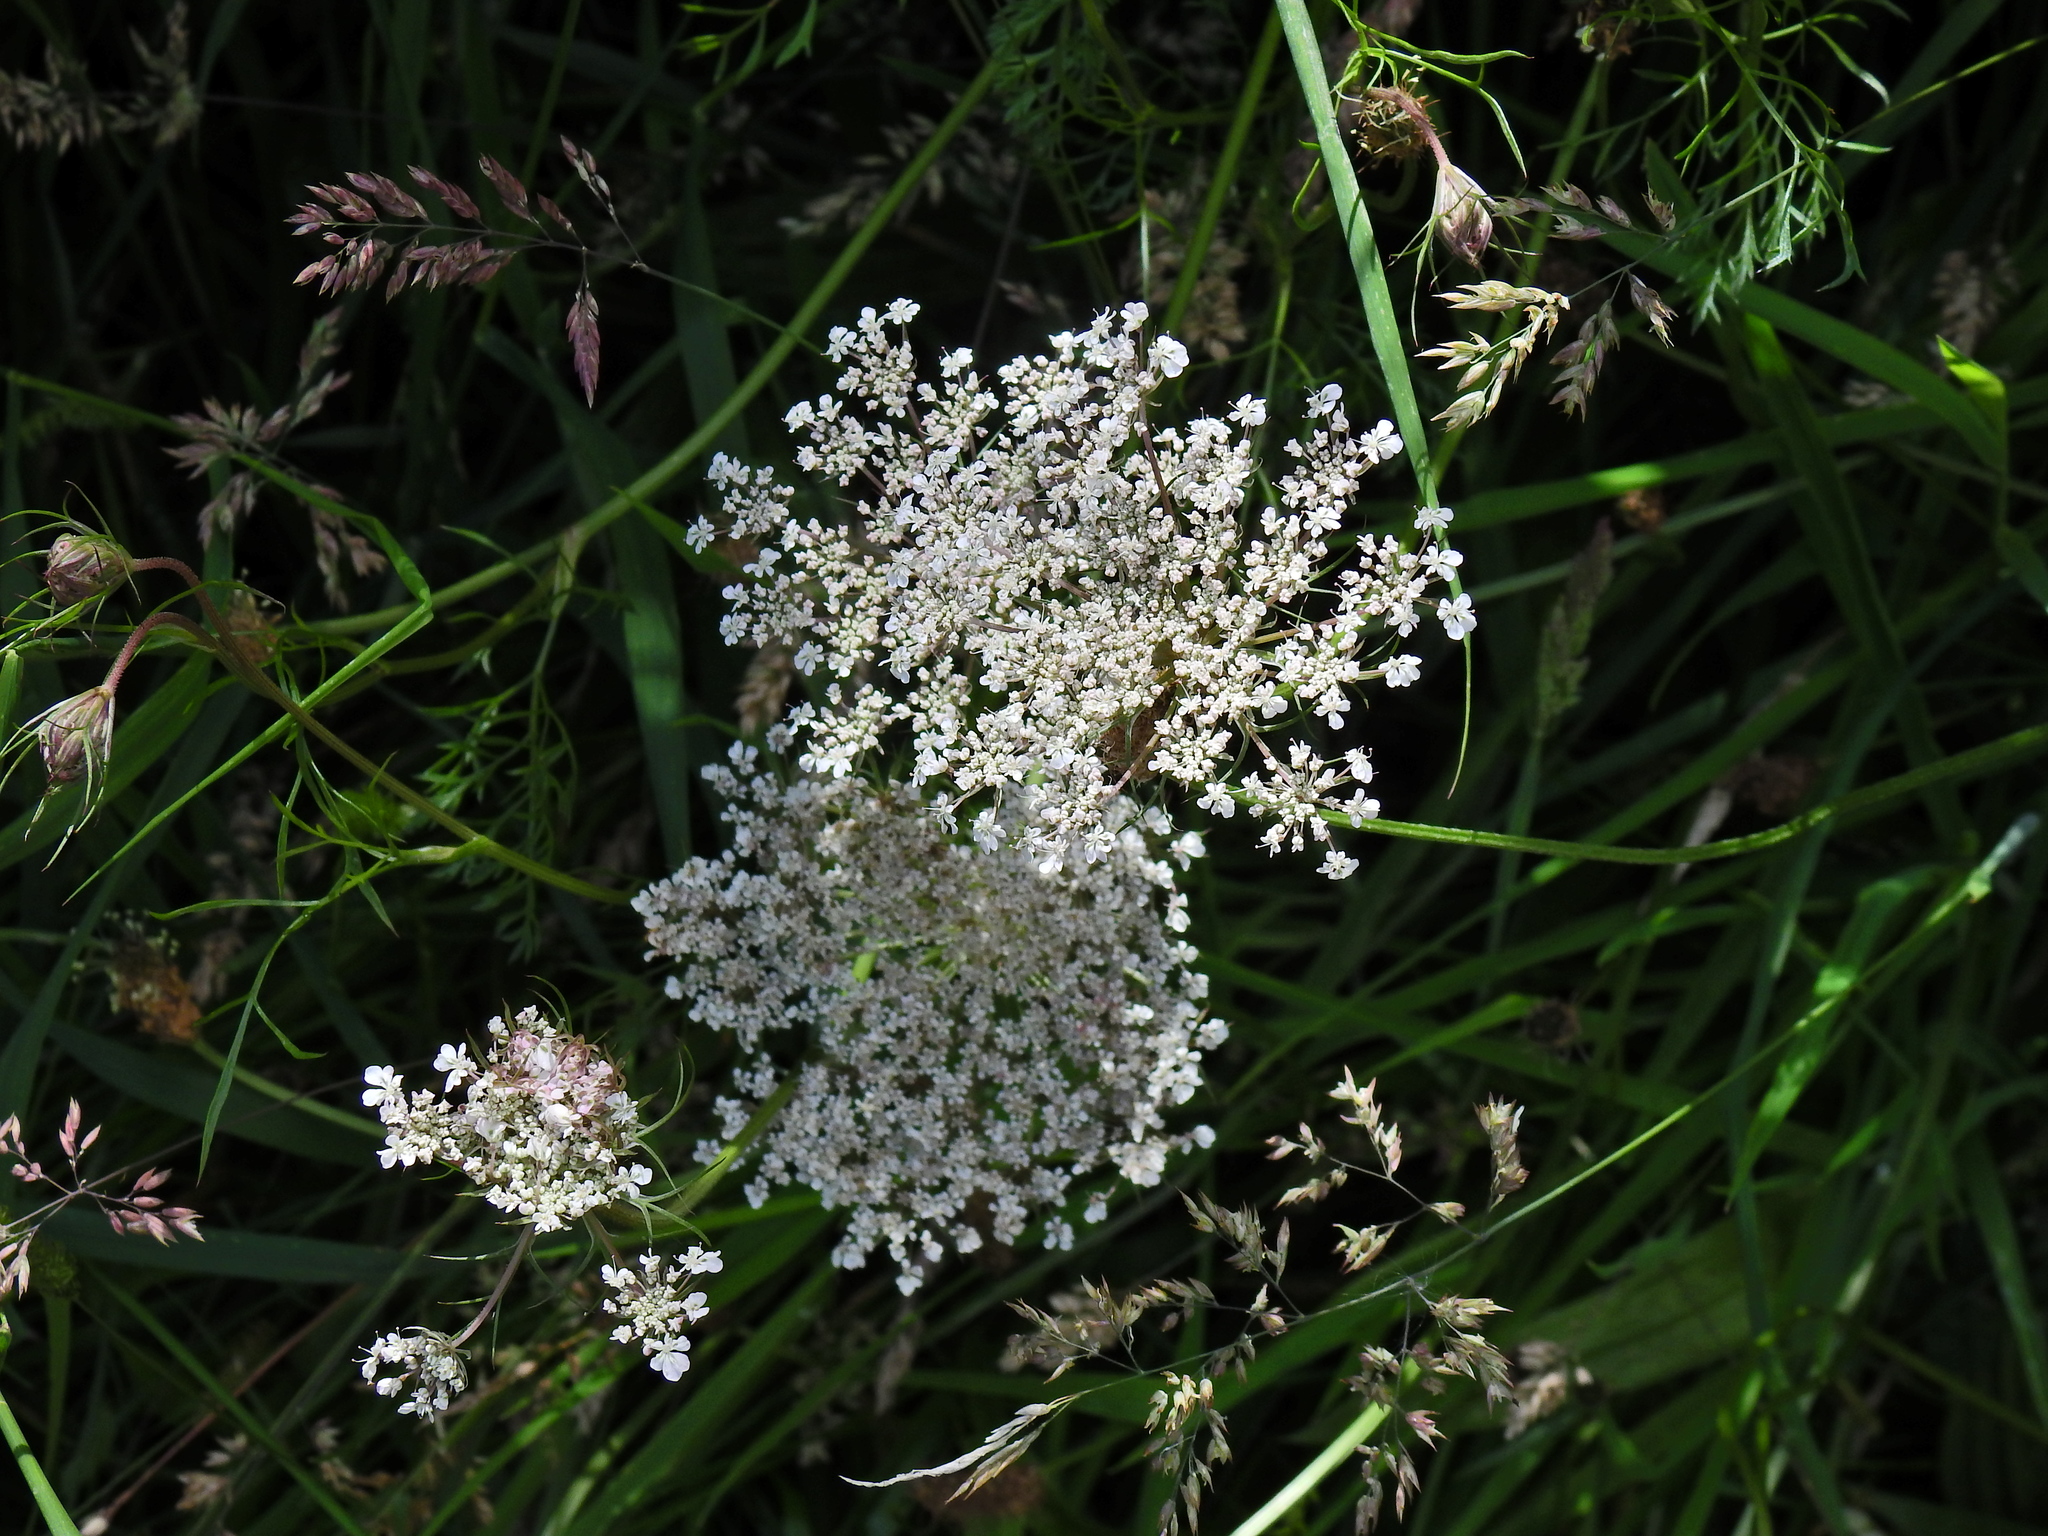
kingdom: Plantae
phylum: Tracheophyta
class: Magnoliopsida
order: Apiales
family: Apiaceae
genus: Daucus
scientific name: Daucus carota
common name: Wild carrot
